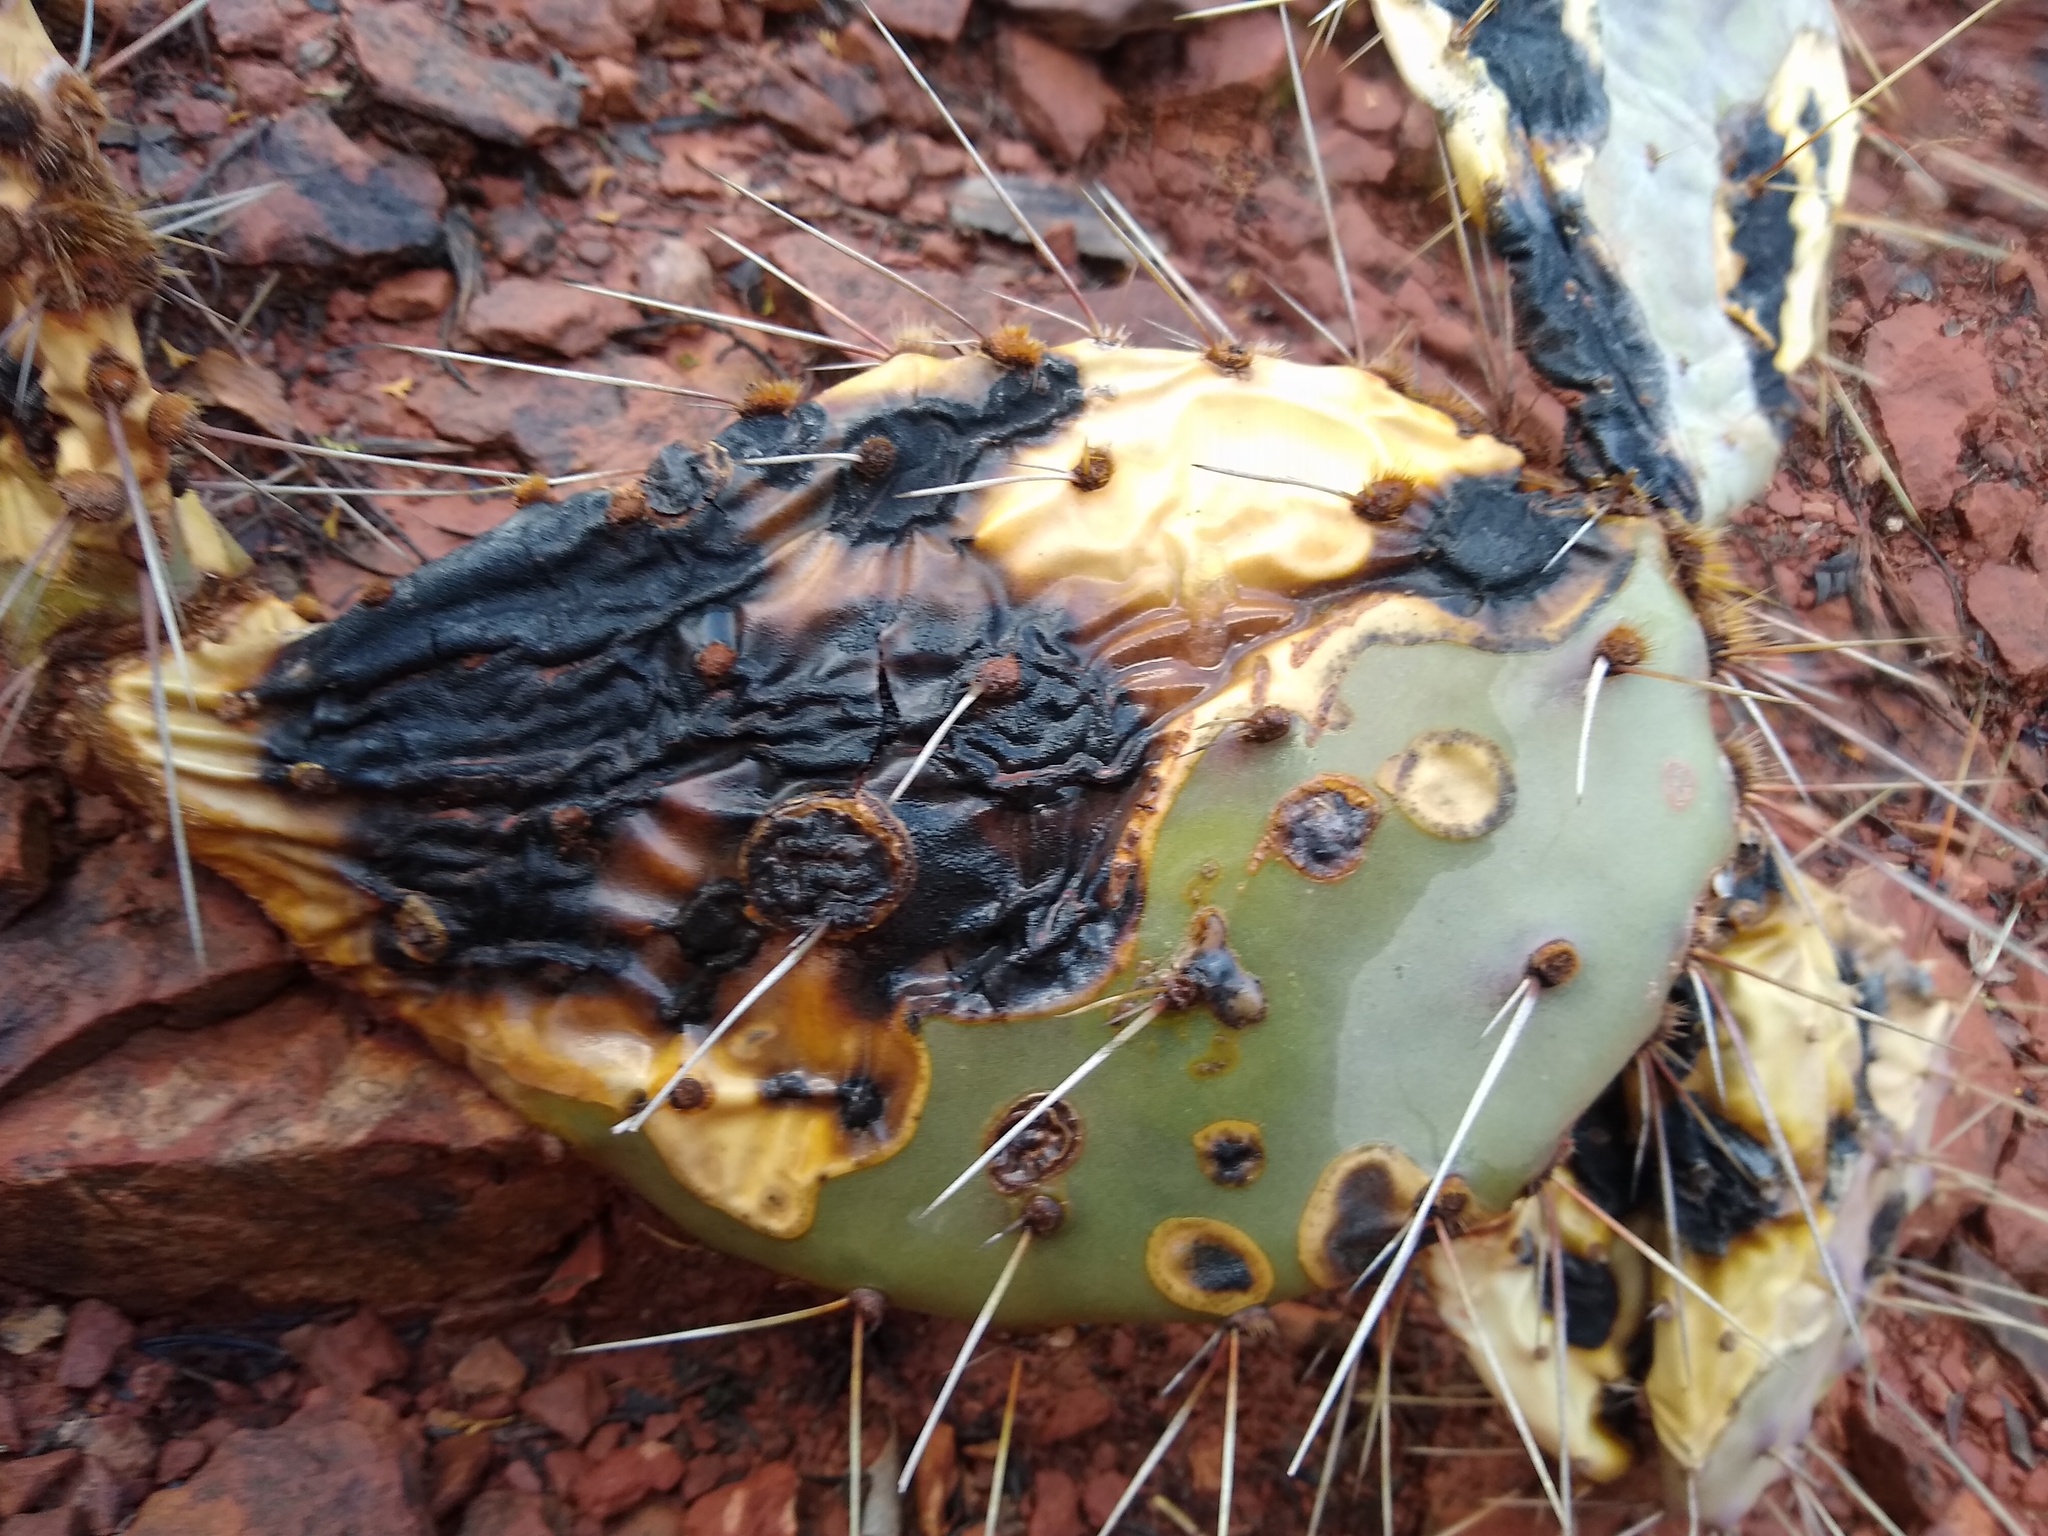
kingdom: Fungi
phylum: Ascomycota
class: Dothideomycetes
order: Botryosphaeriales
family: Phyllostictaceae
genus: Phyllosticta
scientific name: Phyllosticta concava
